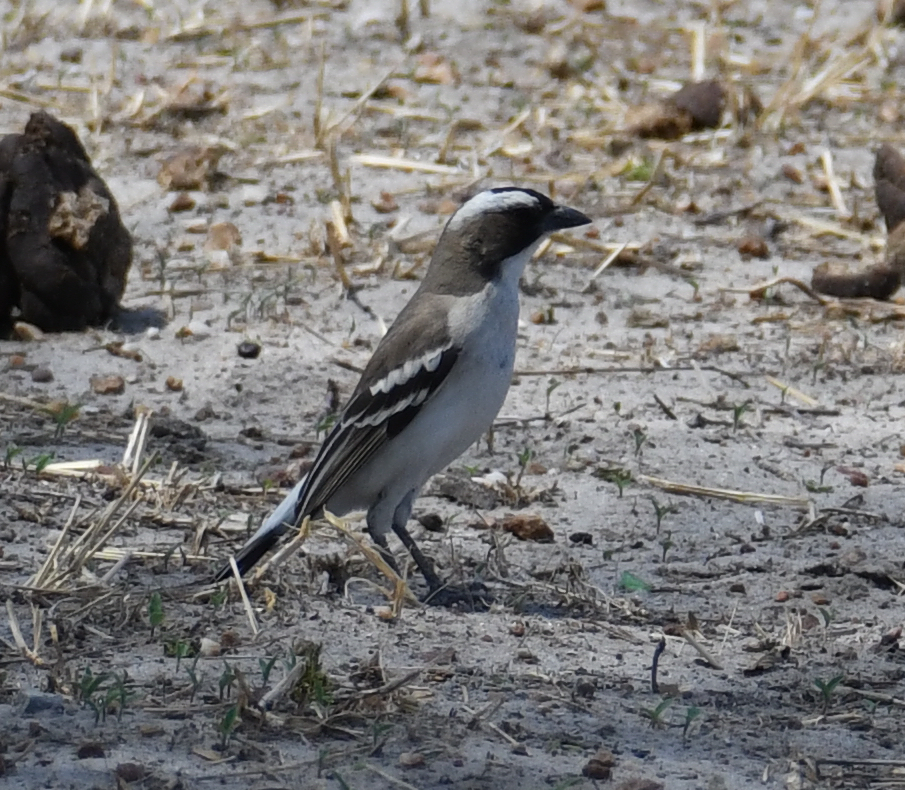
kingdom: Animalia
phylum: Chordata
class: Aves
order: Passeriformes
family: Passeridae
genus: Plocepasser
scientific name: Plocepasser mahali
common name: White-browed sparrow-weaver
